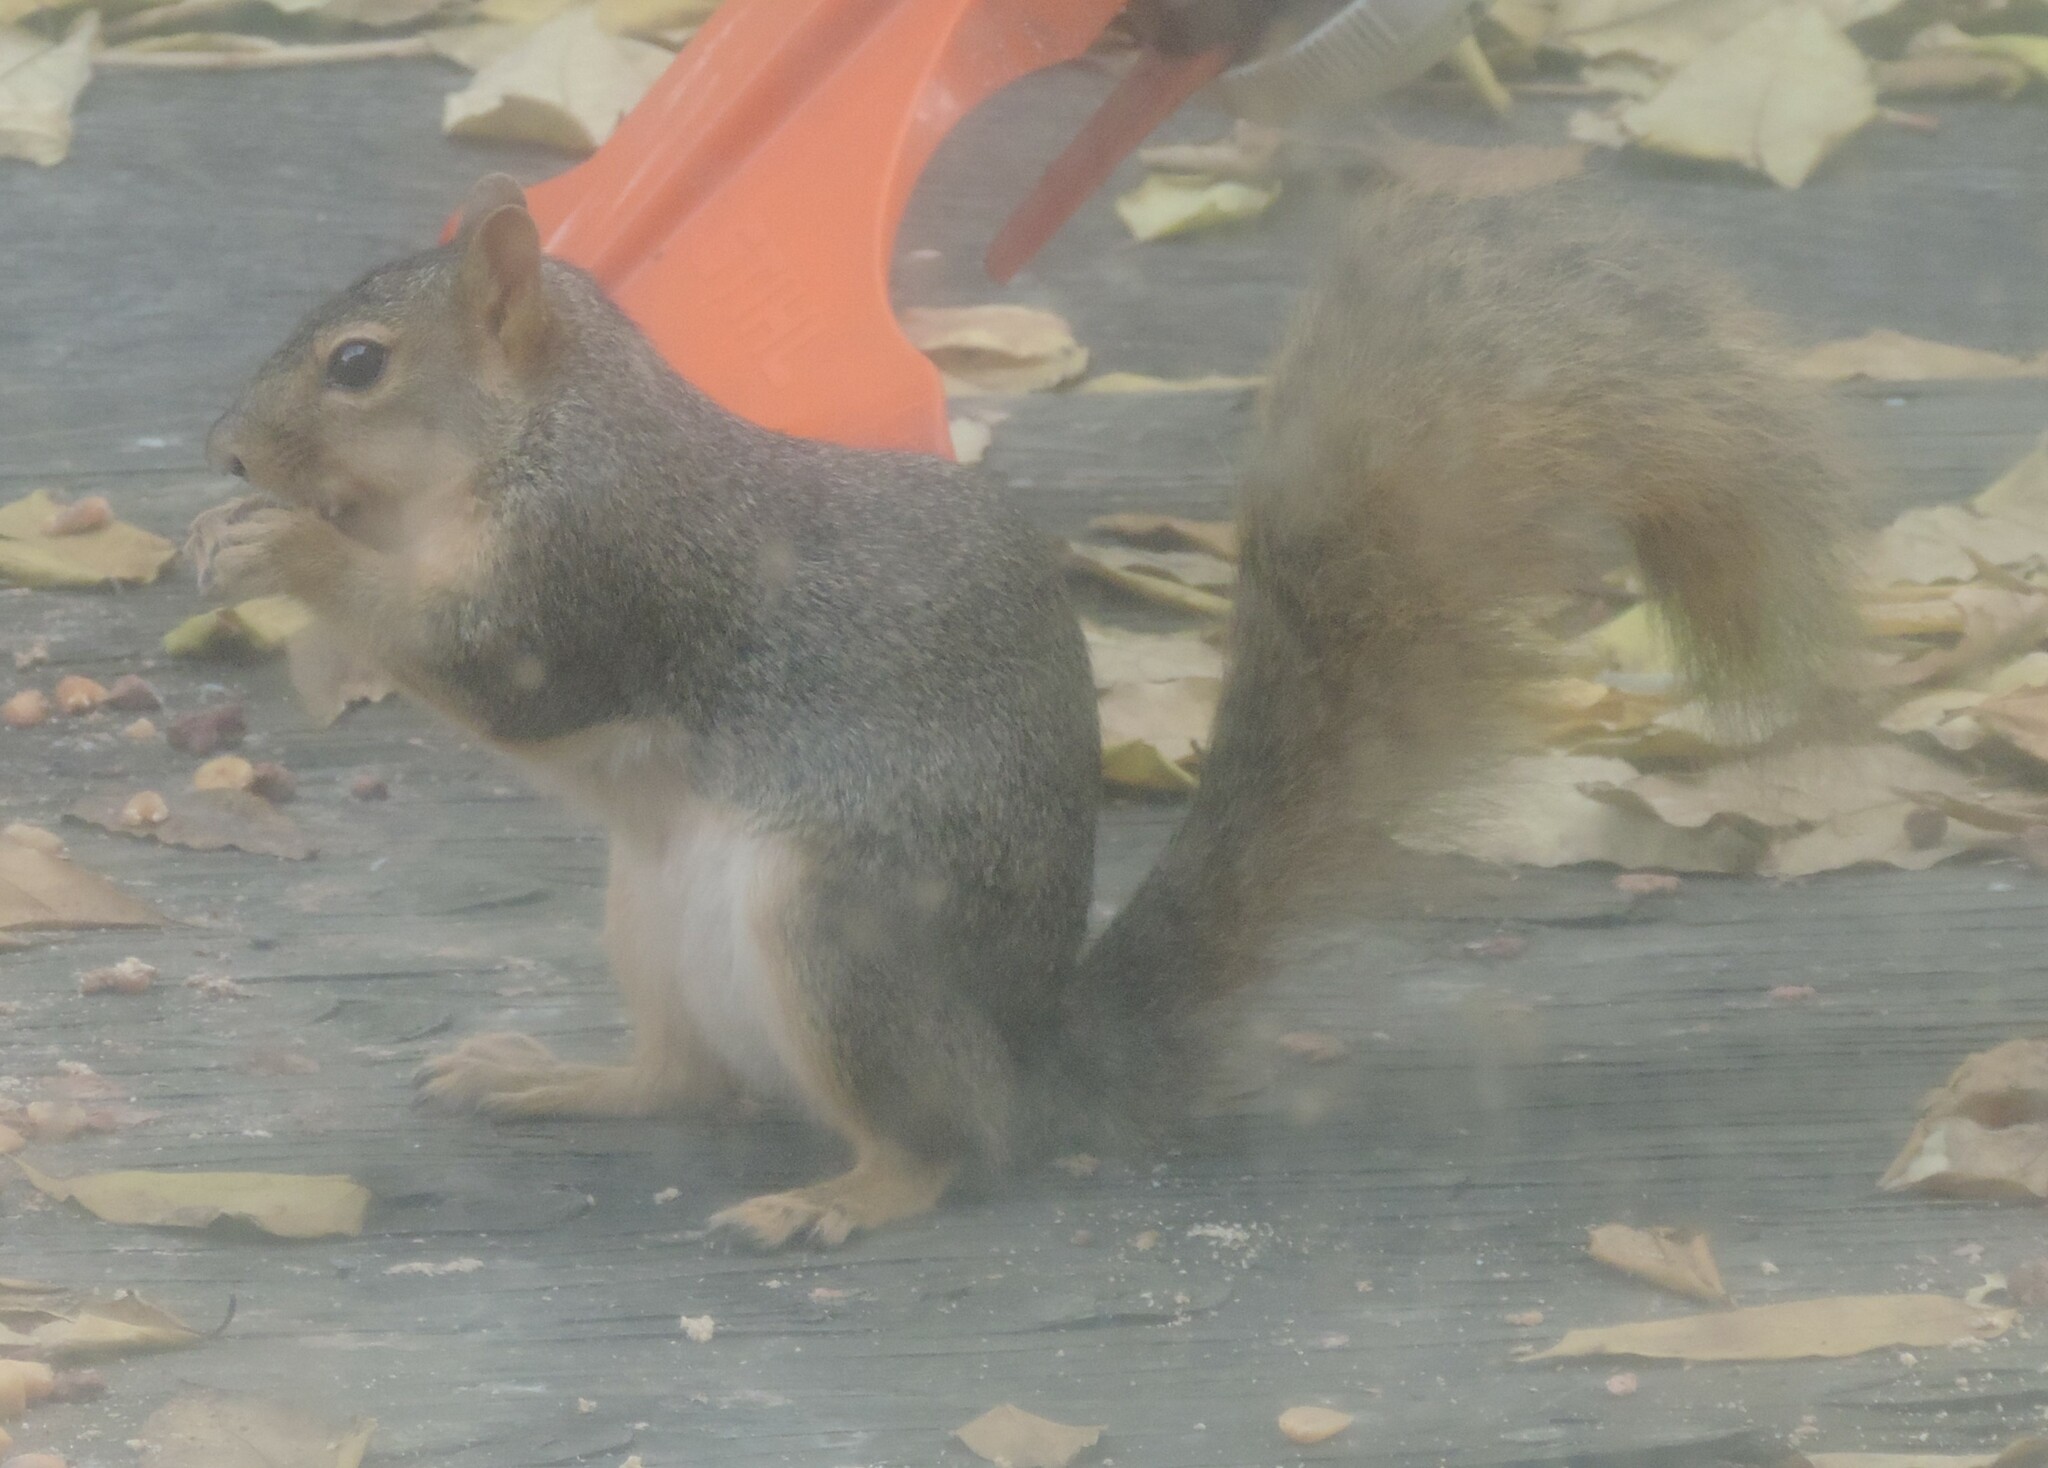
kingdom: Animalia
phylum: Chordata
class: Mammalia
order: Rodentia
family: Sciuridae
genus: Sciurus
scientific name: Sciurus niger
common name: Fox squirrel
